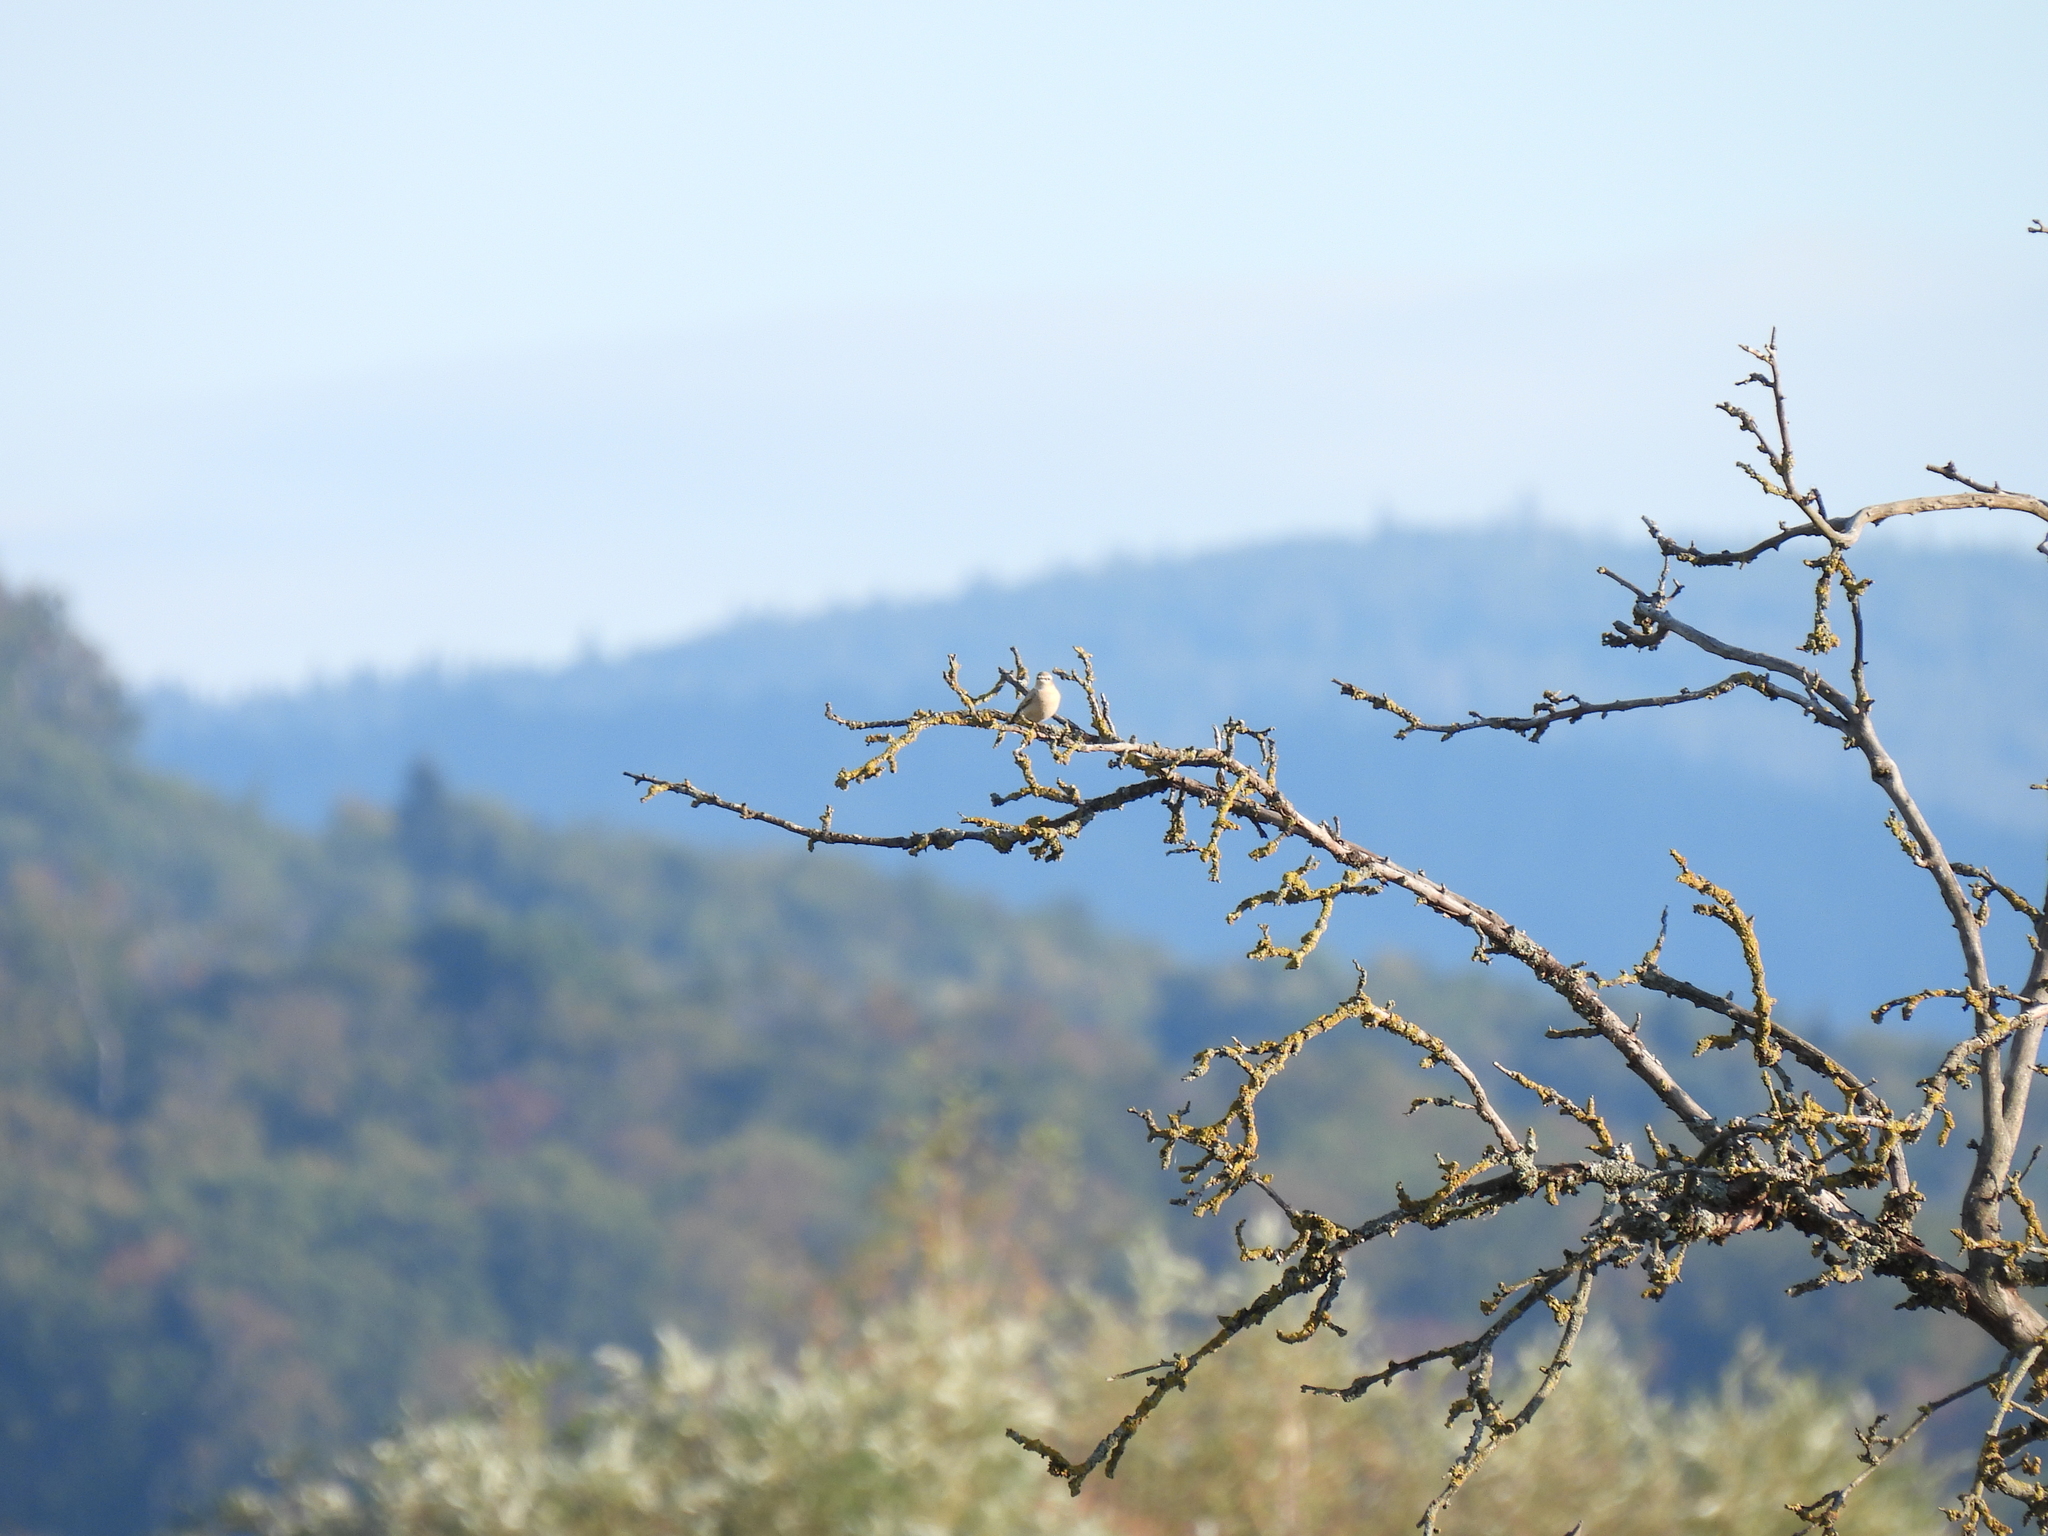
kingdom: Animalia
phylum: Chordata
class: Aves
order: Passeriformes
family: Muscicapidae
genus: Oenanthe
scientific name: Oenanthe oenanthe
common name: Northern wheatear
